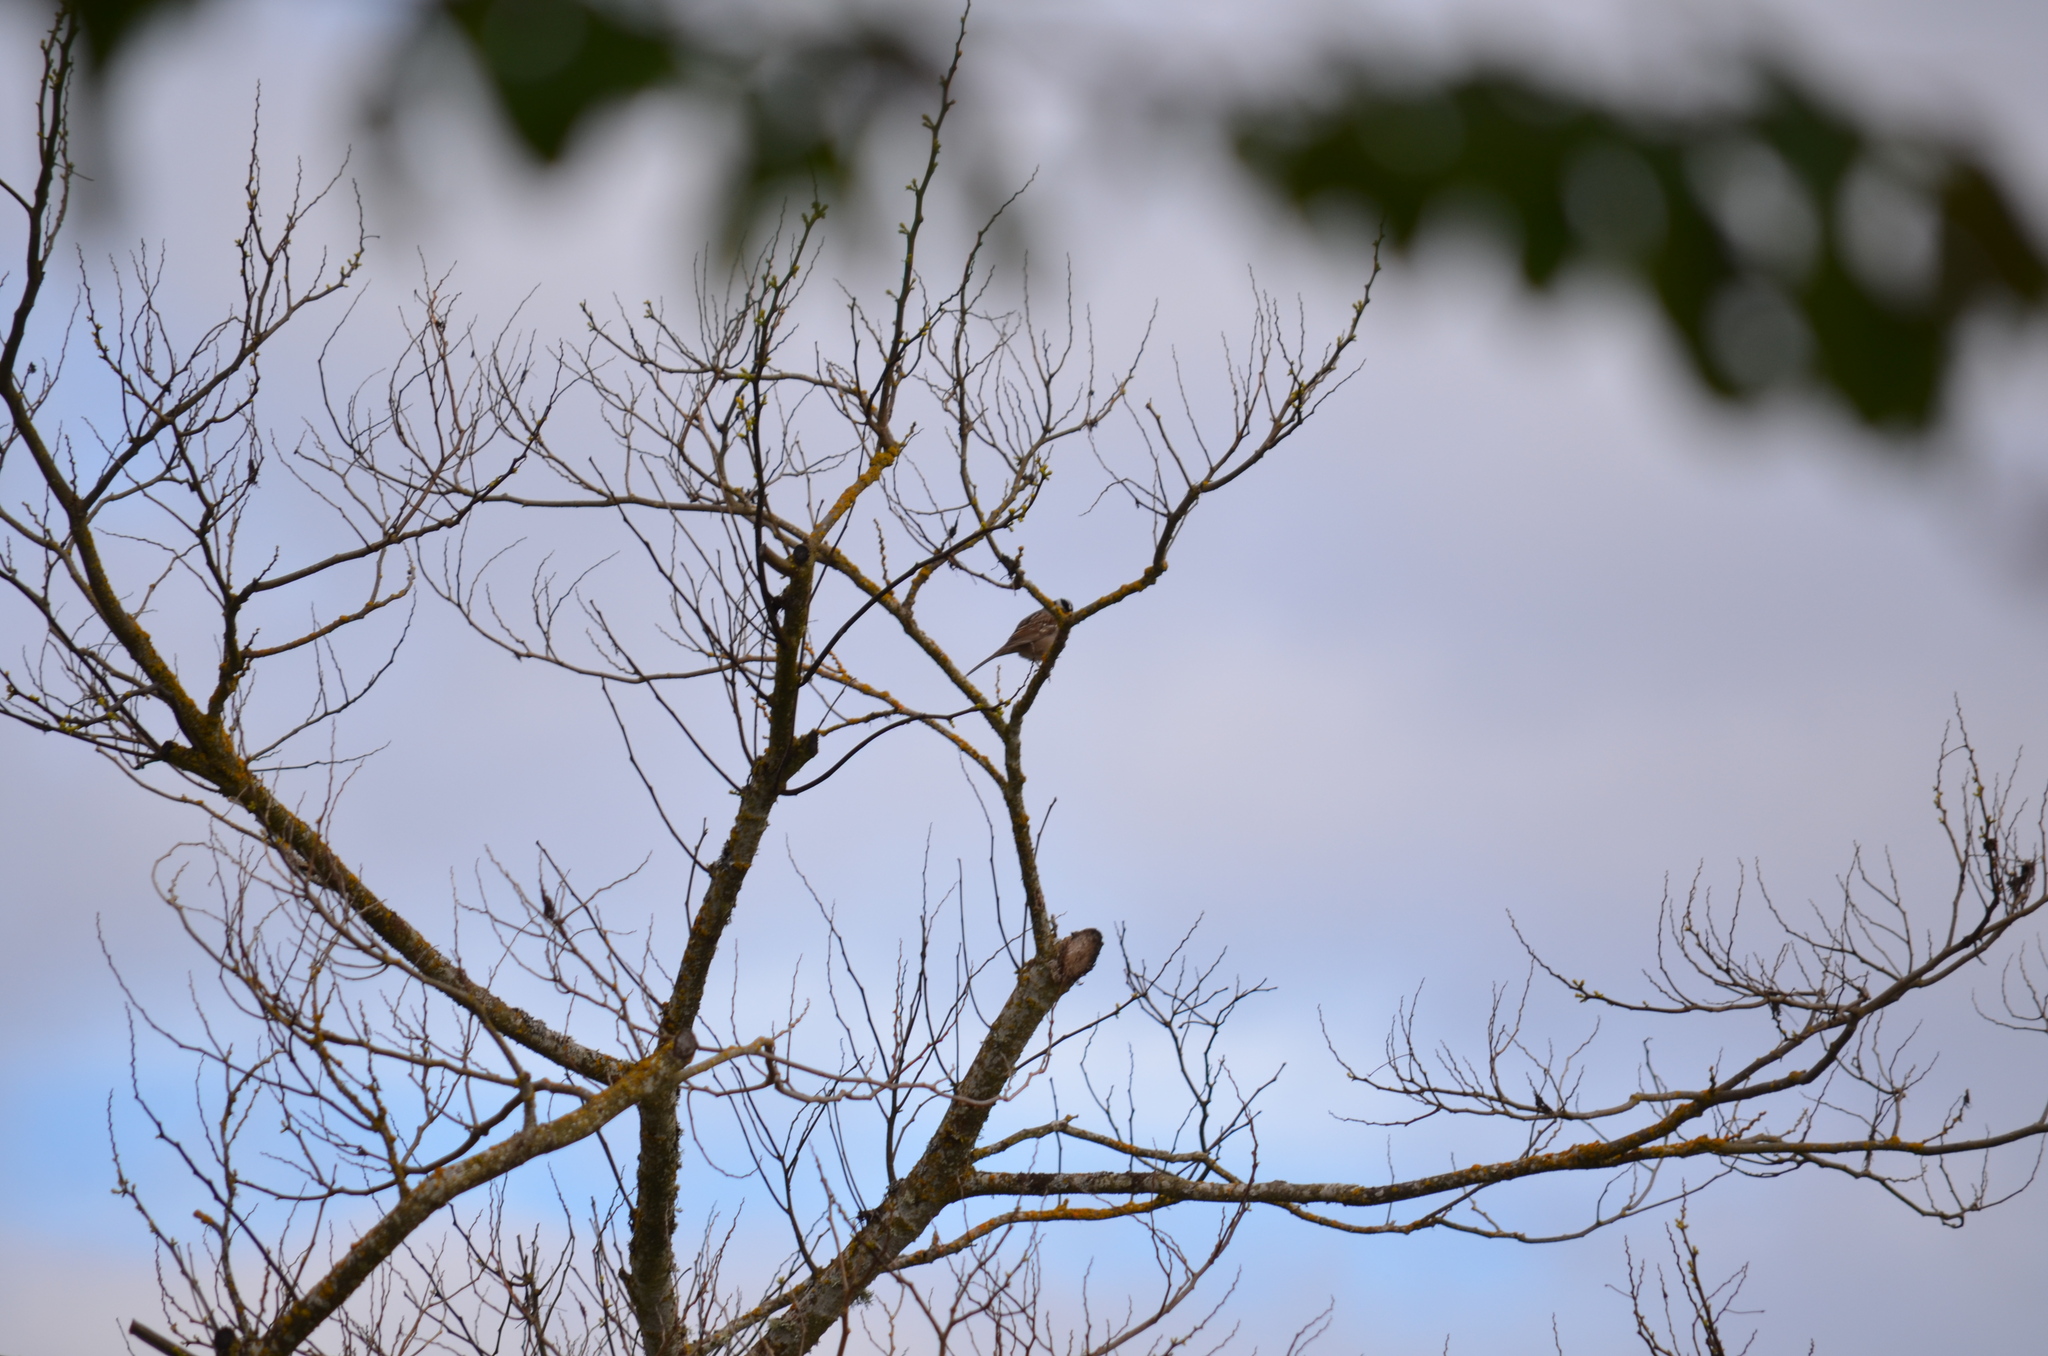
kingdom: Animalia
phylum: Chordata
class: Aves
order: Passeriformes
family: Passerellidae
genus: Zonotrichia
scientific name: Zonotrichia leucophrys
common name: White-crowned sparrow
